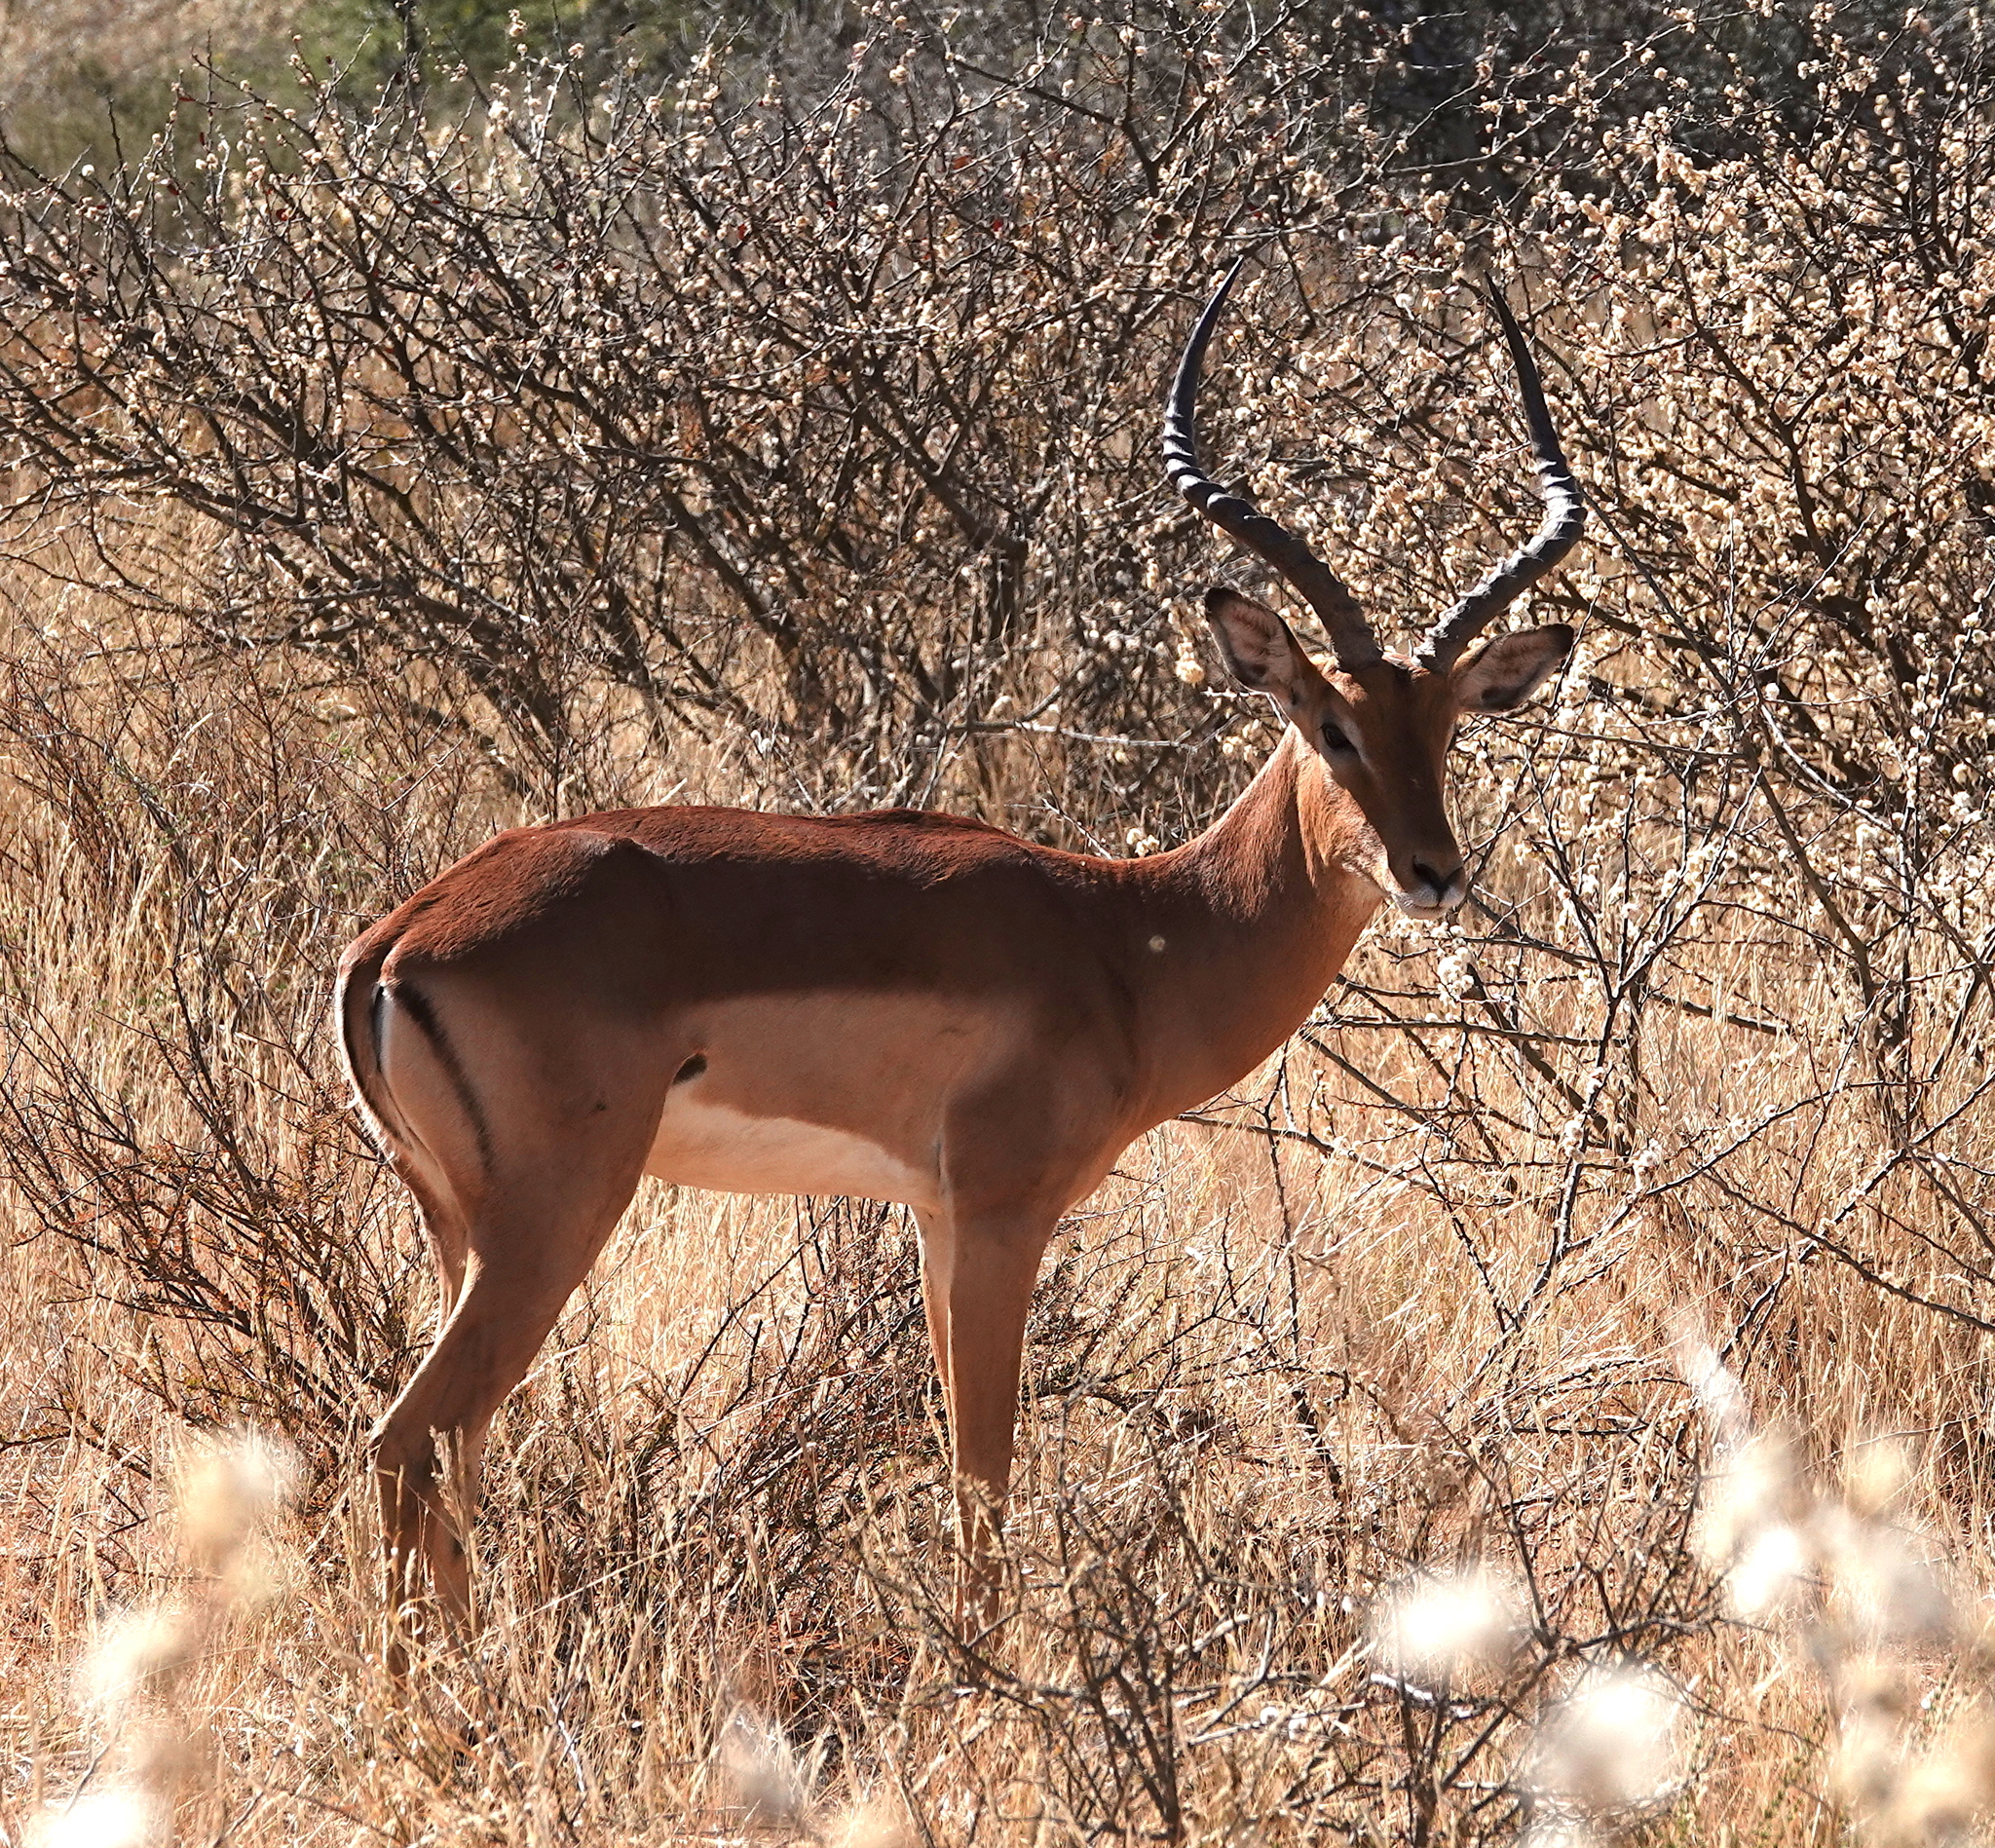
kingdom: Animalia
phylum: Chordata
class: Mammalia
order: Artiodactyla
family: Bovidae
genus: Aepyceros
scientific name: Aepyceros melampus
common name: Impala
